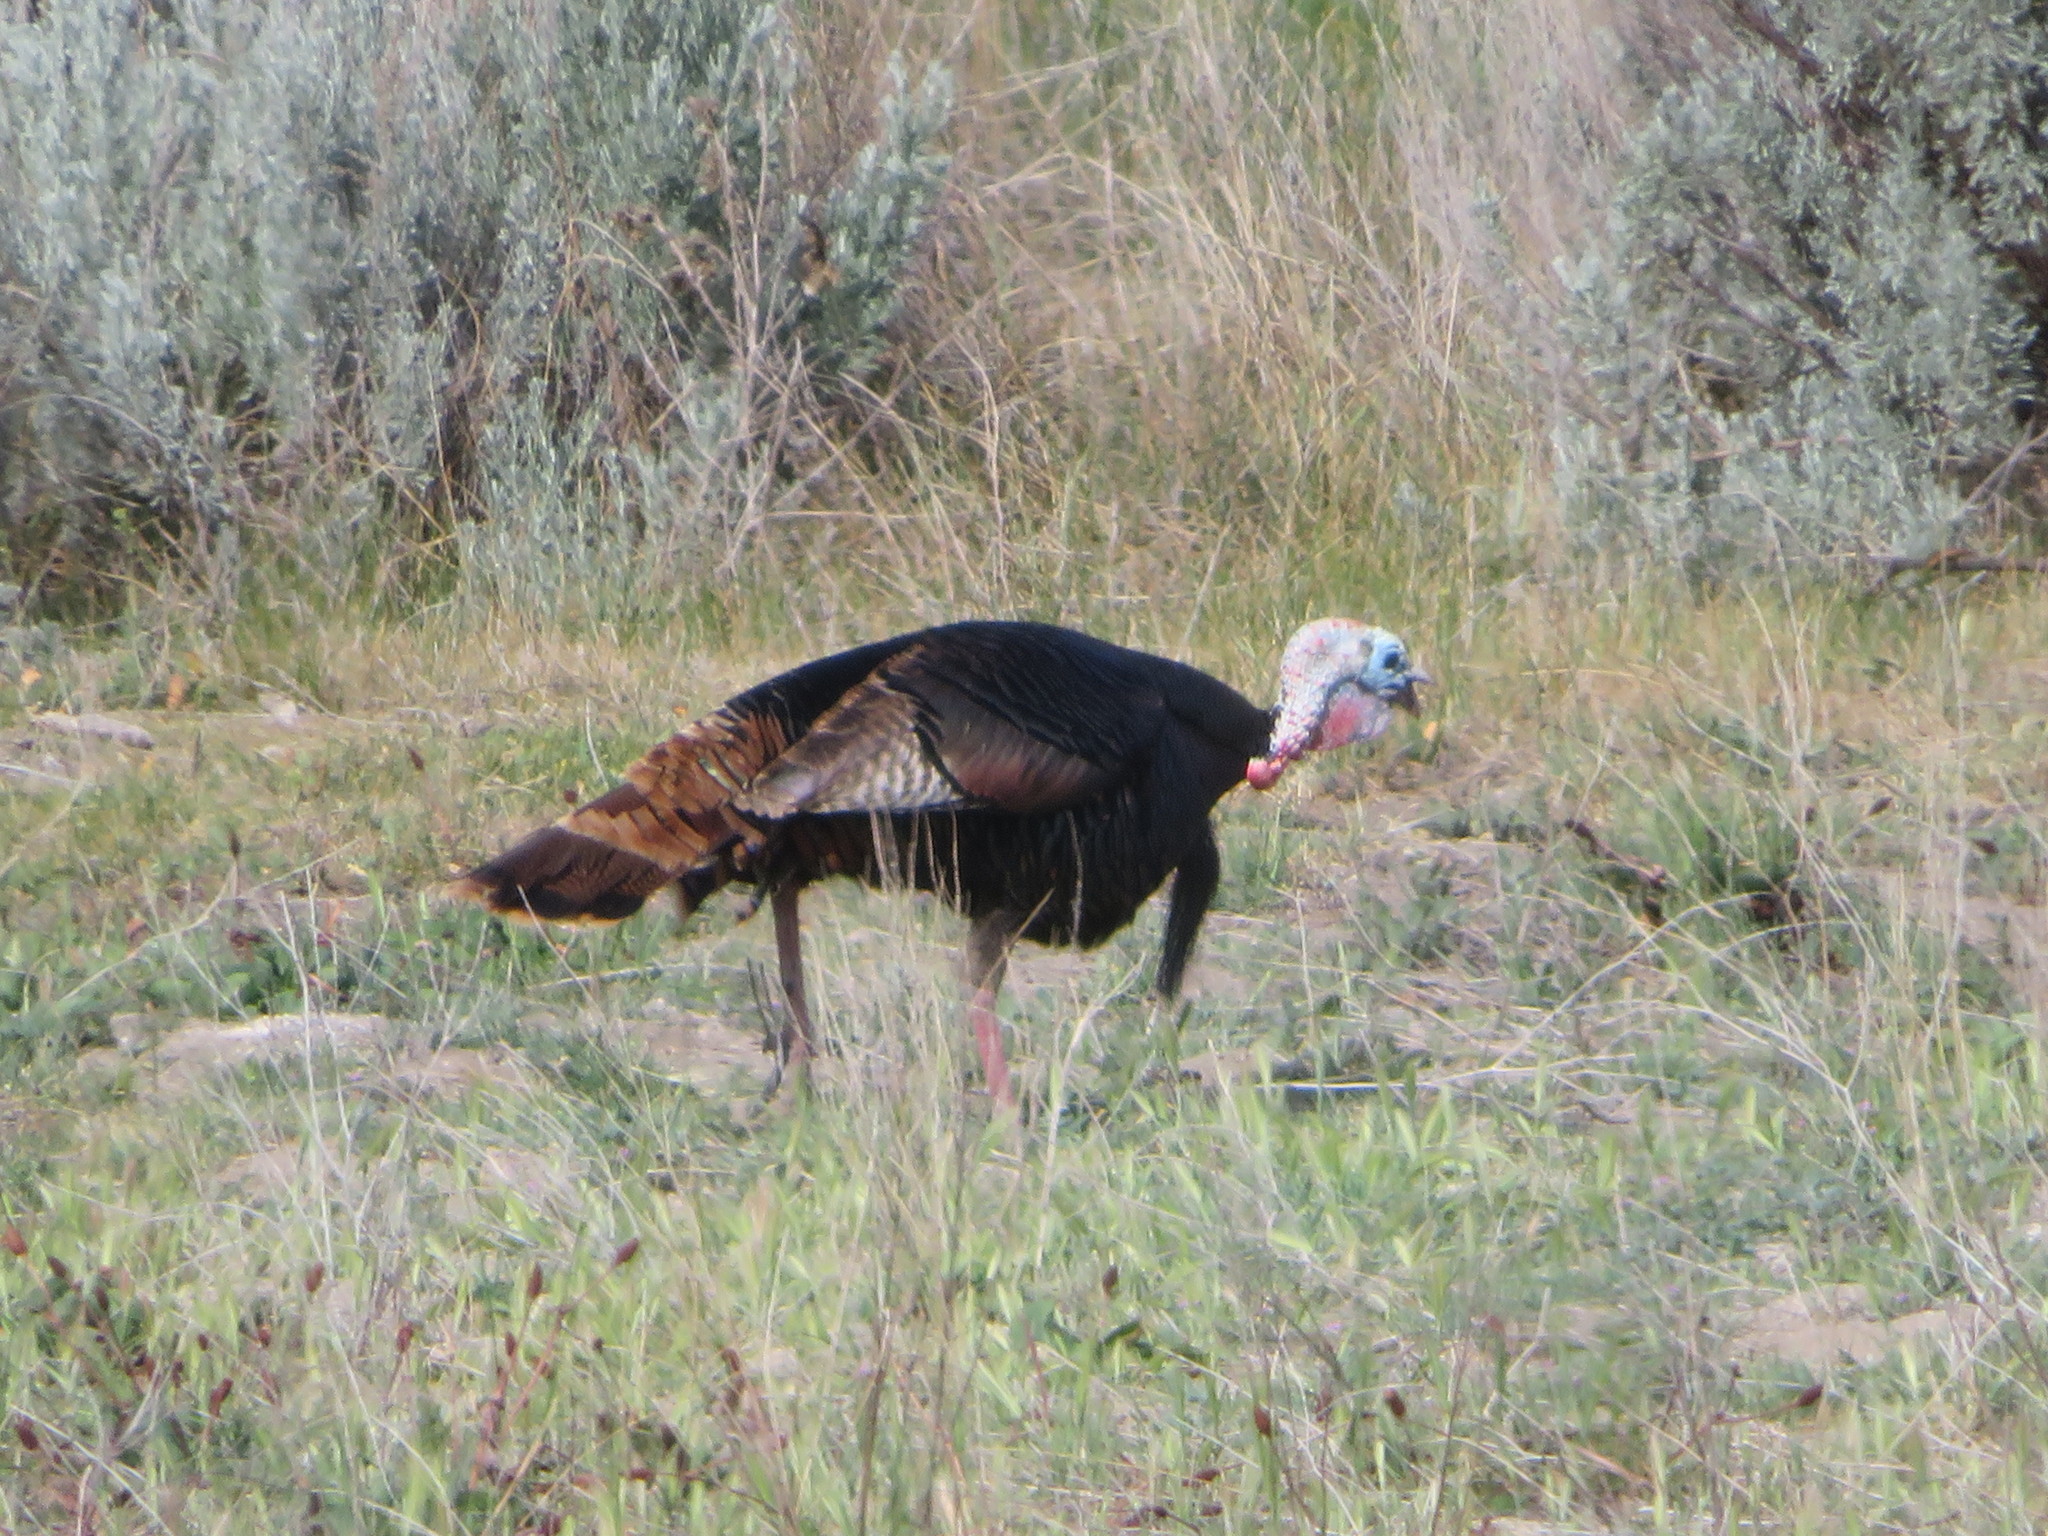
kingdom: Animalia
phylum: Chordata
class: Aves
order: Galliformes
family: Phasianidae
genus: Meleagris
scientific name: Meleagris gallopavo
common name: Wild turkey
